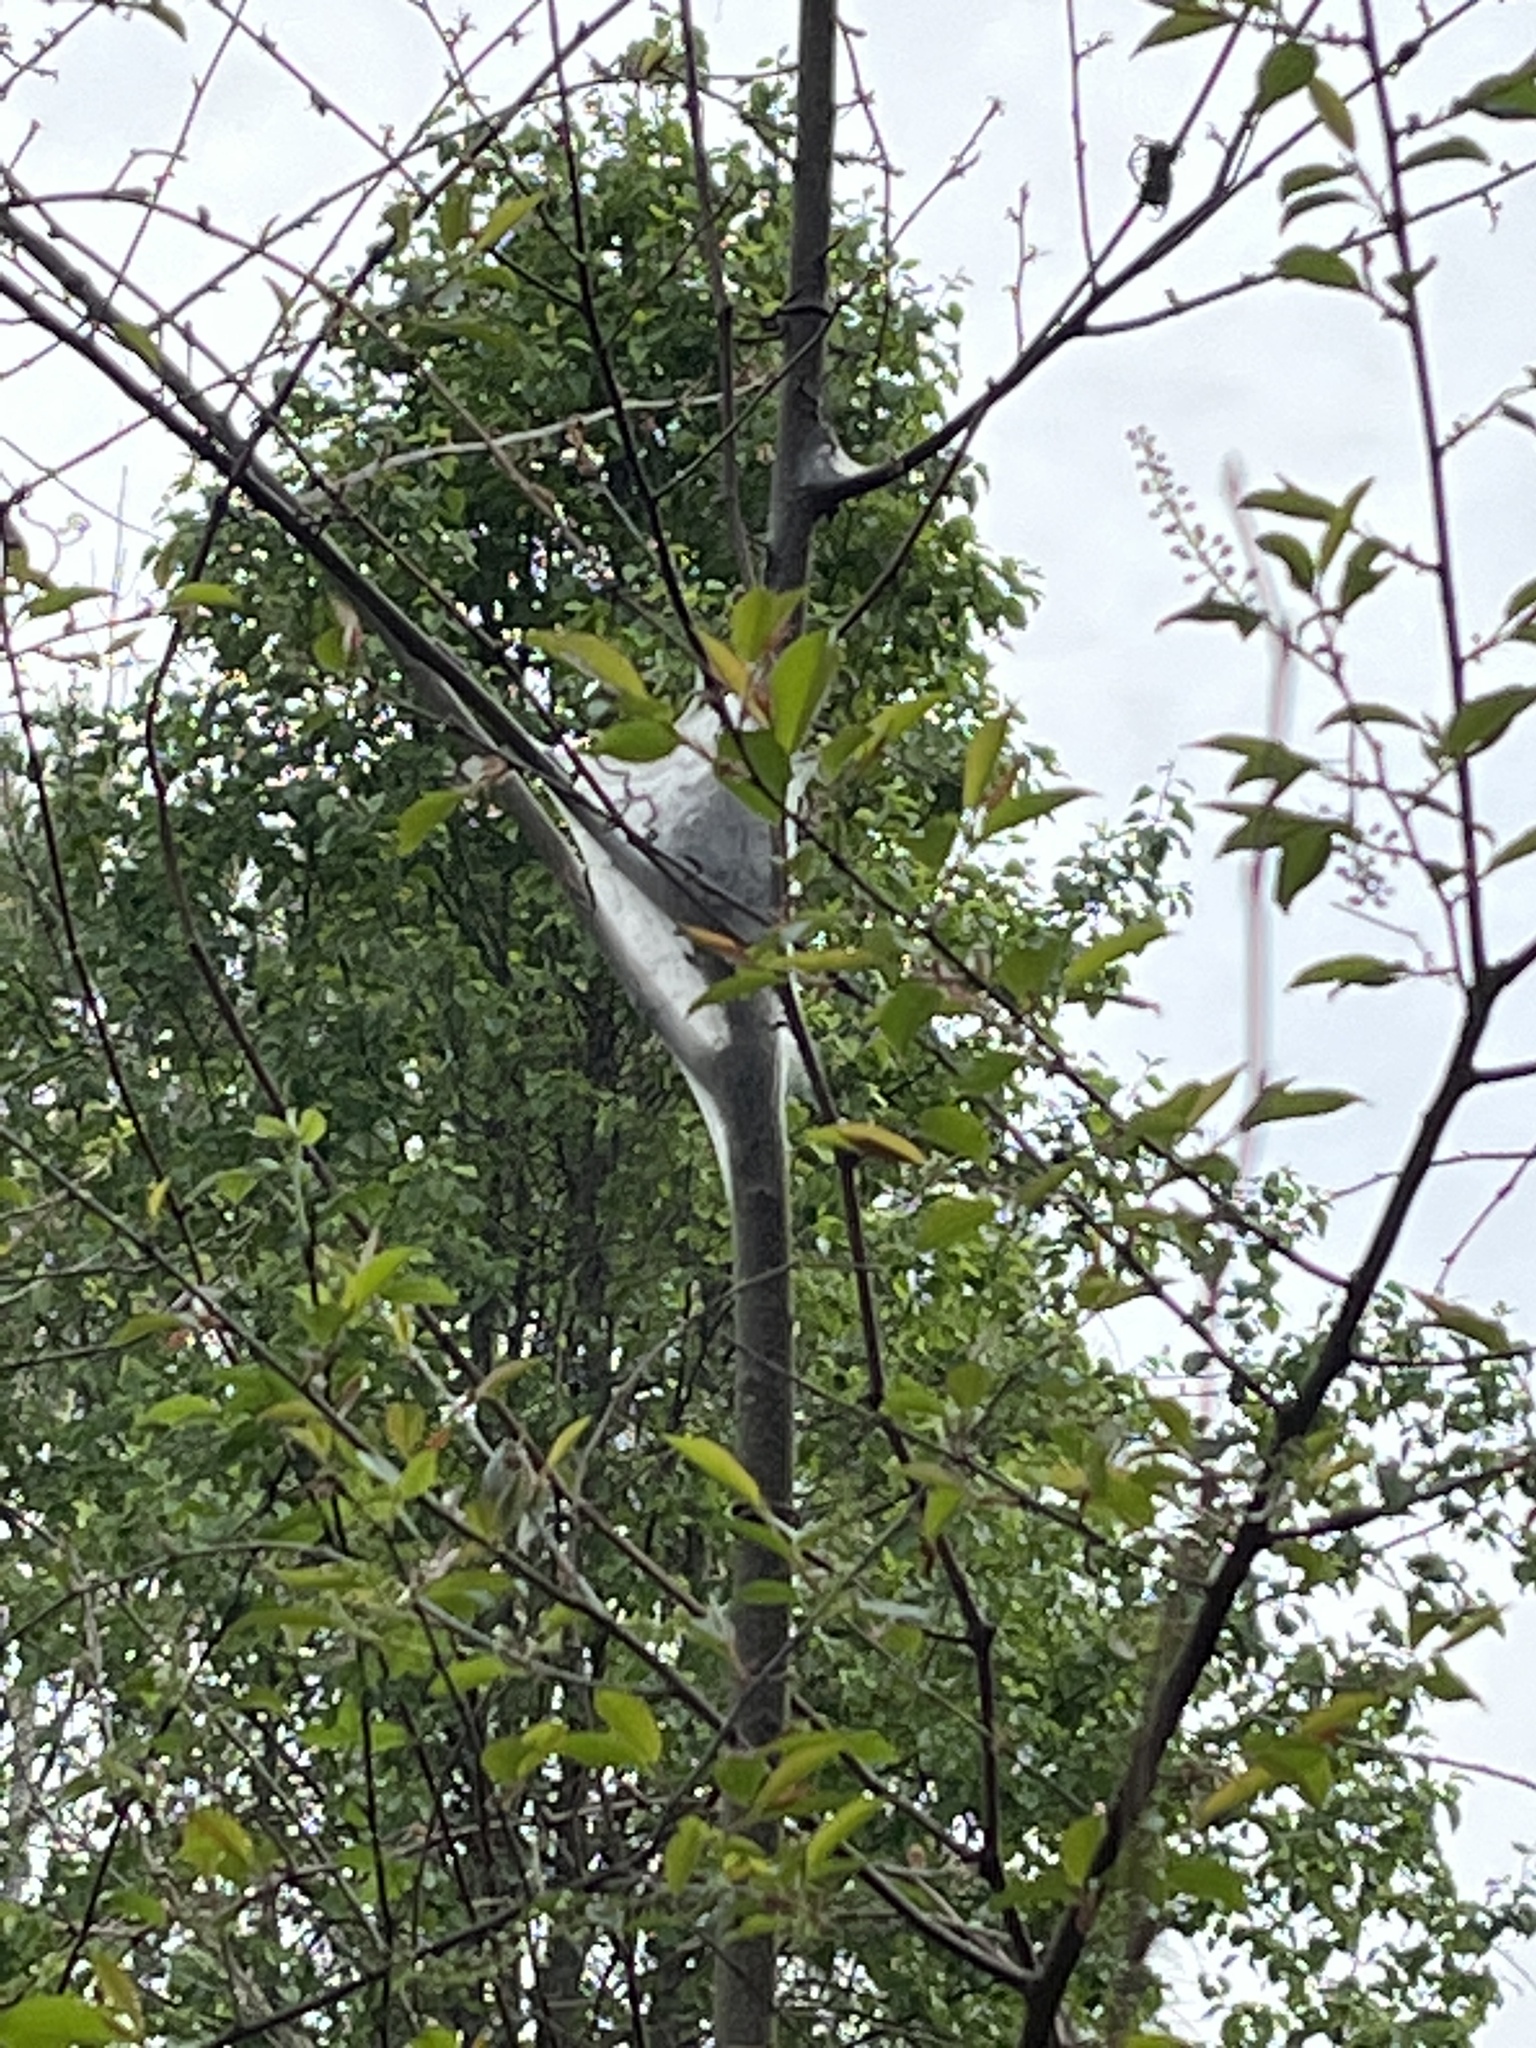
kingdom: Animalia
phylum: Arthropoda
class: Insecta
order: Lepidoptera
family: Lasiocampidae
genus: Malacosoma
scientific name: Malacosoma americana
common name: Eastern tent caterpillar moth
